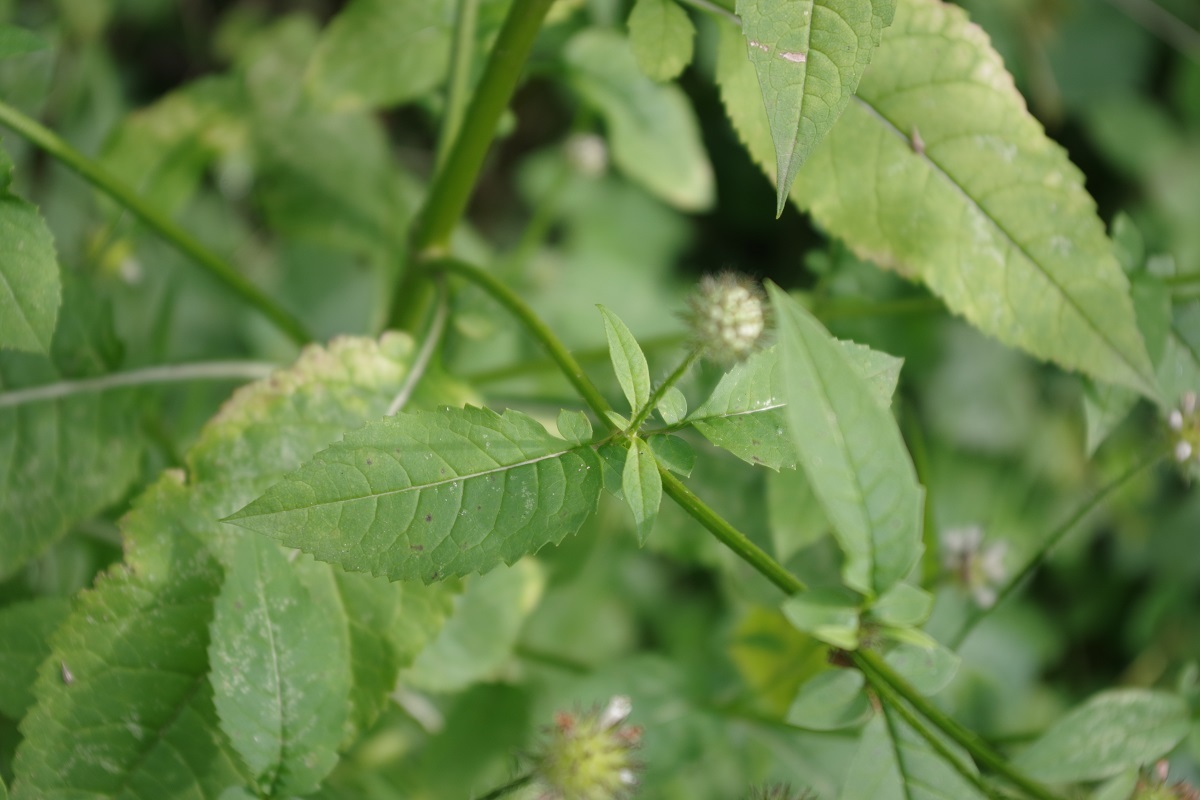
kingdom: Plantae
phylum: Tracheophyta
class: Magnoliopsida
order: Dipsacales
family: Caprifoliaceae
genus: Dipsacus
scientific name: Dipsacus pilosus
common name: Small teasel
